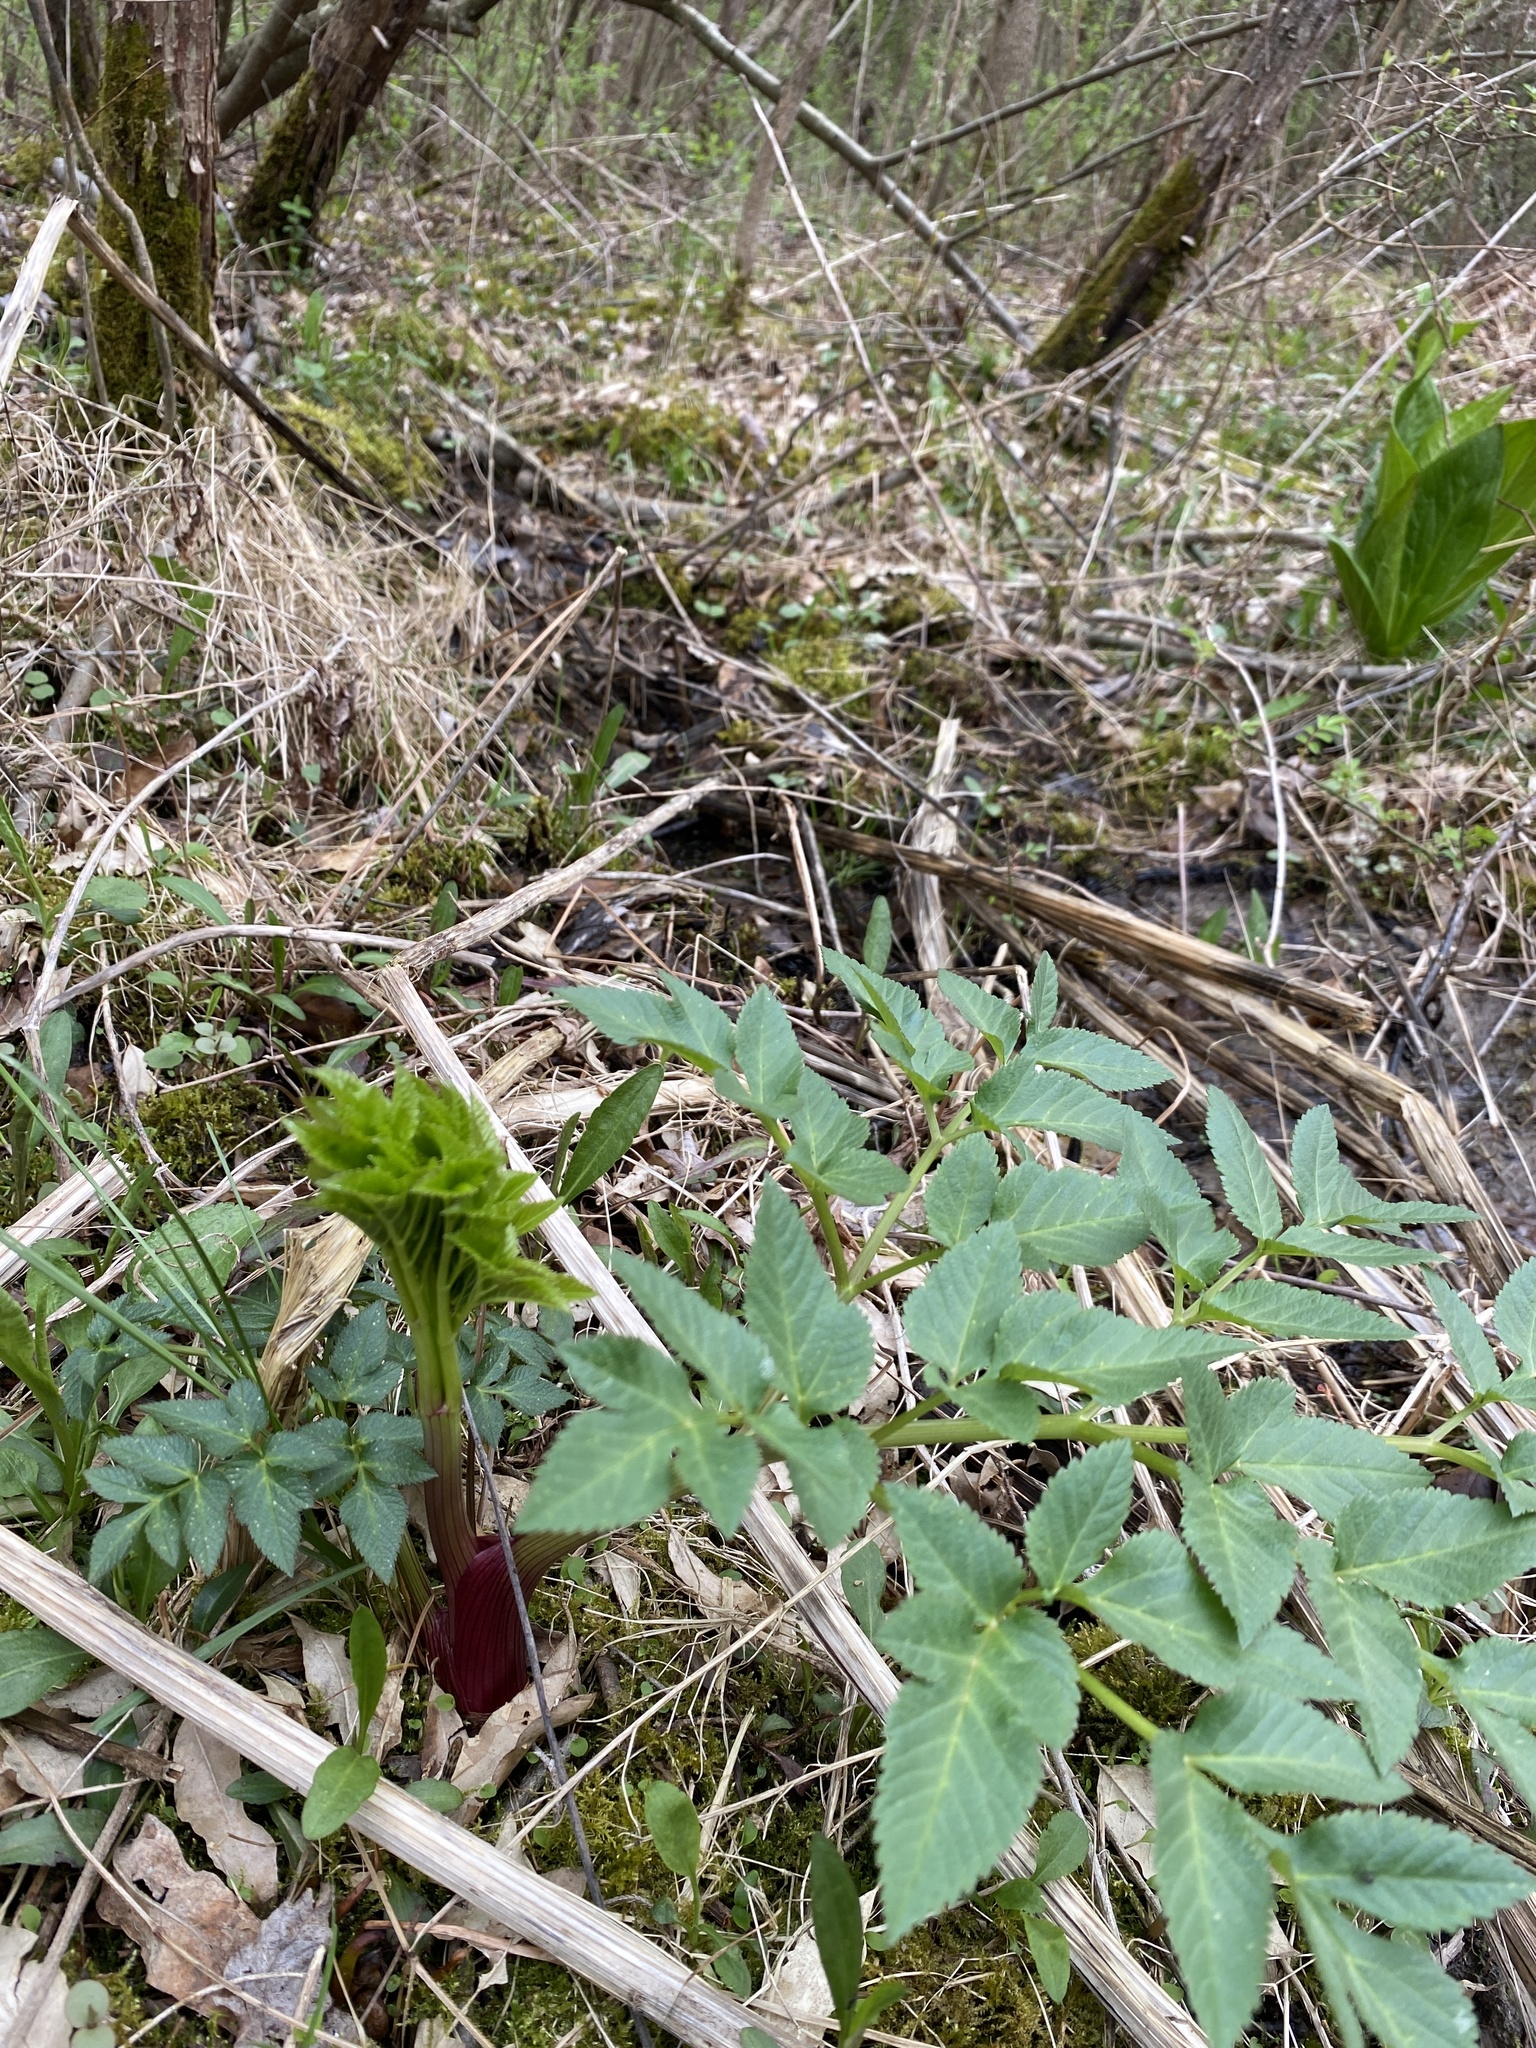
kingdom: Plantae
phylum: Tracheophyta
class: Magnoliopsida
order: Apiales
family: Apiaceae
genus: Angelica
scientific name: Angelica atropurpurea
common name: Great angelica
